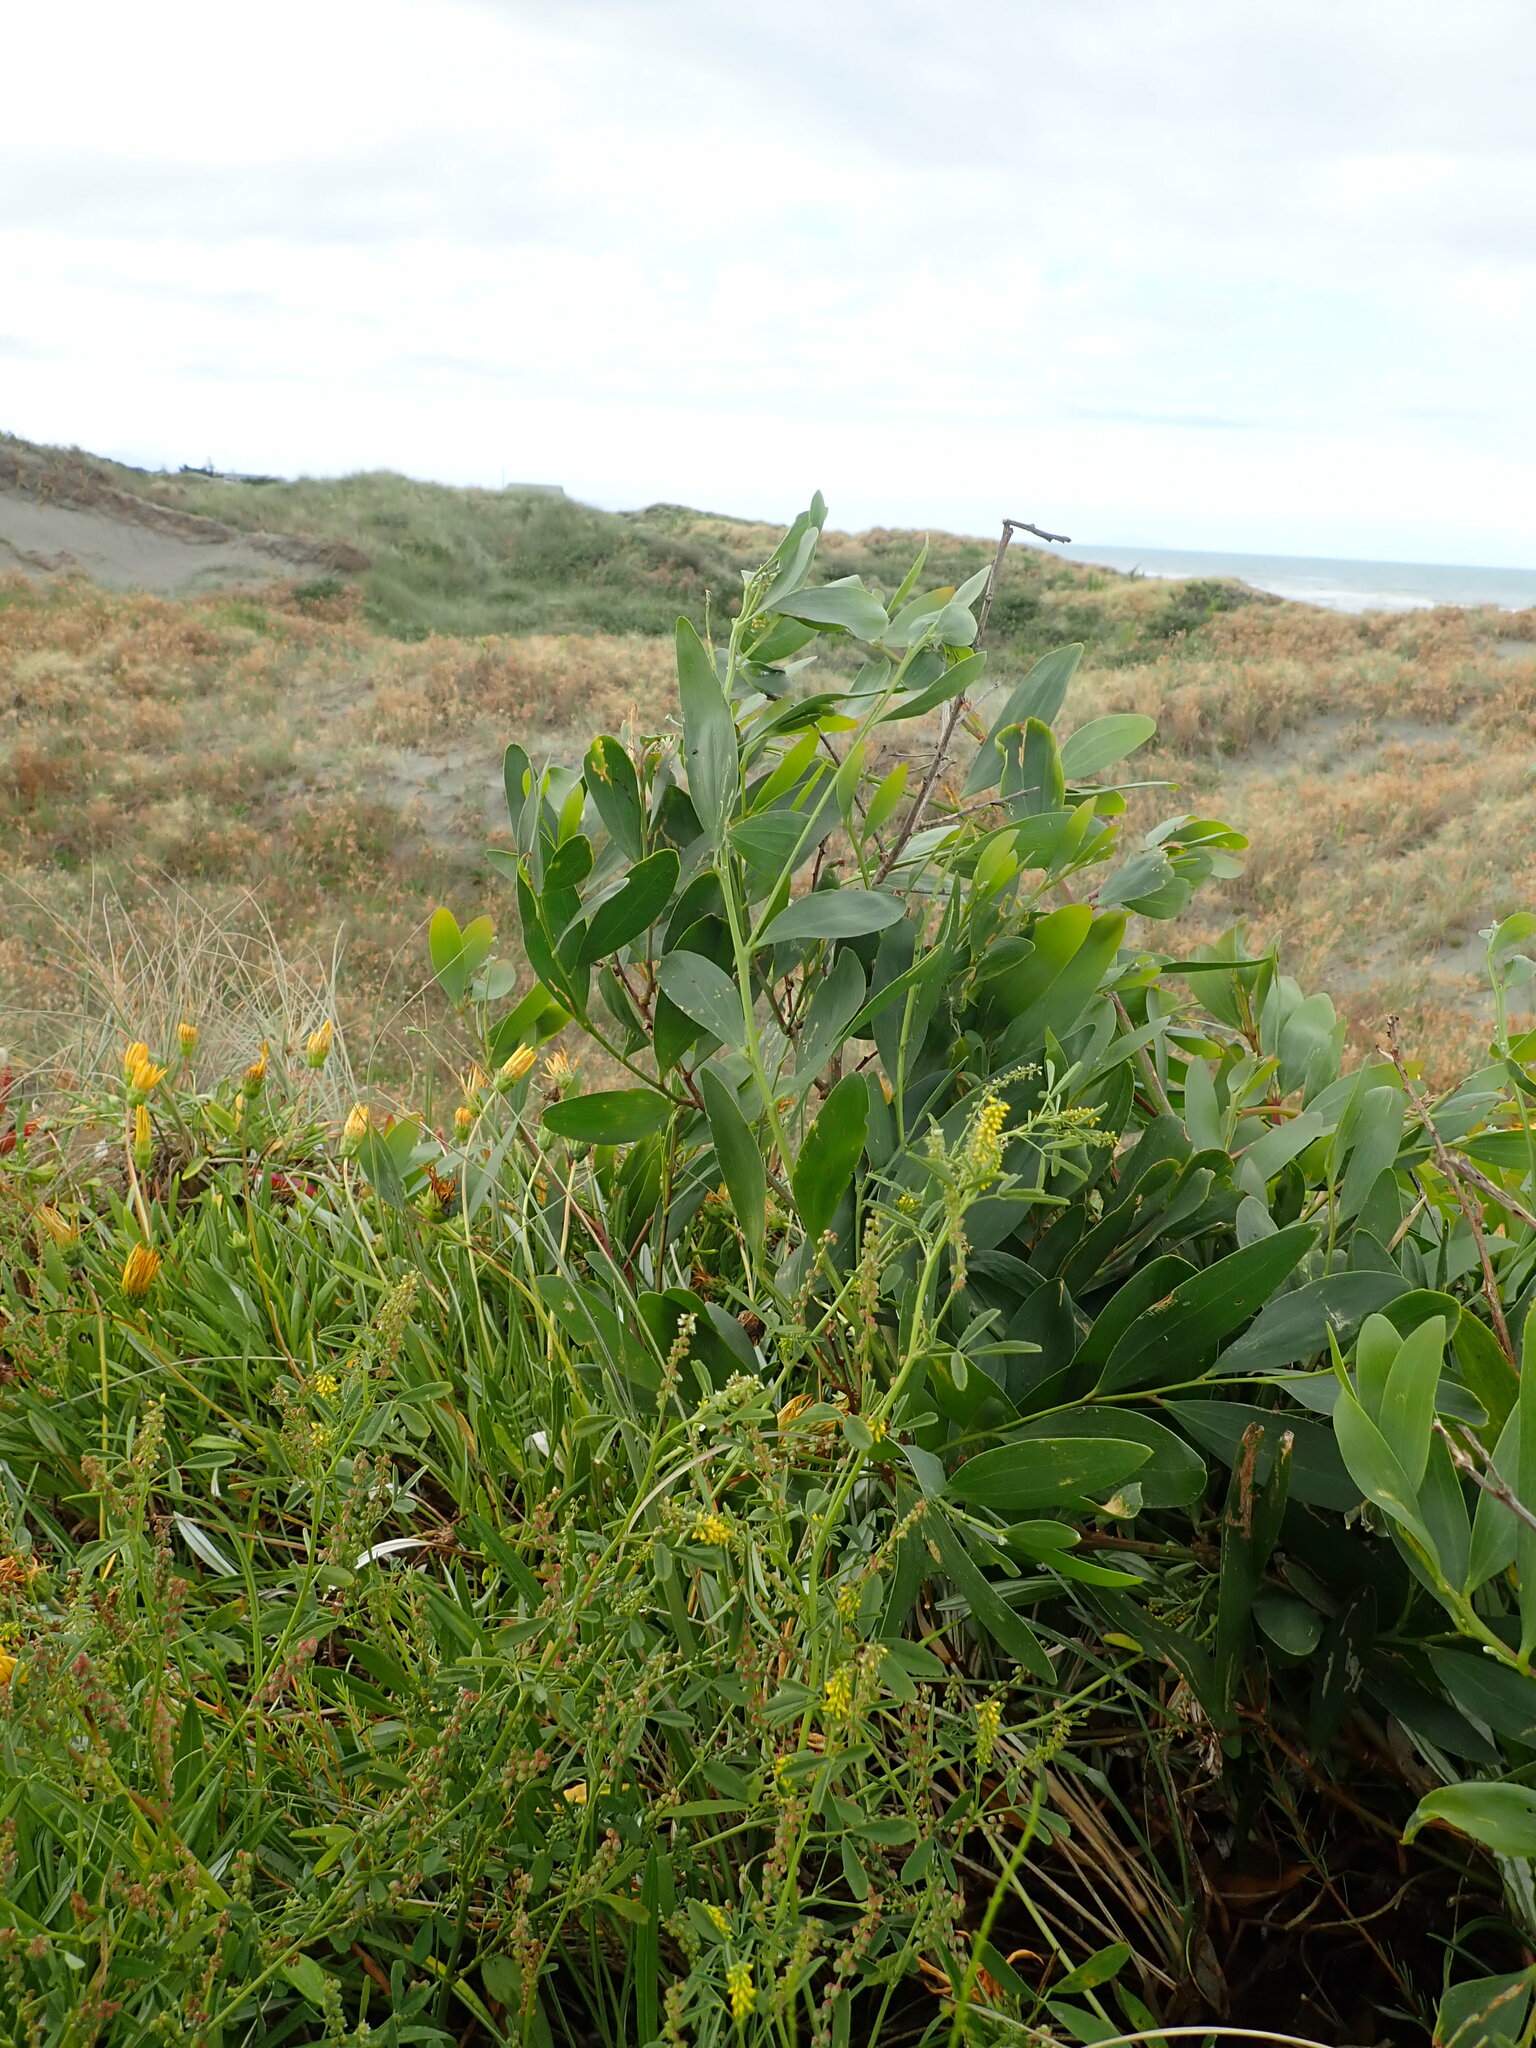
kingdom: Plantae
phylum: Tracheophyta
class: Magnoliopsida
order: Fabales
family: Fabaceae
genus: Acacia
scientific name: Acacia longifolia
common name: Sydney golden wattle
